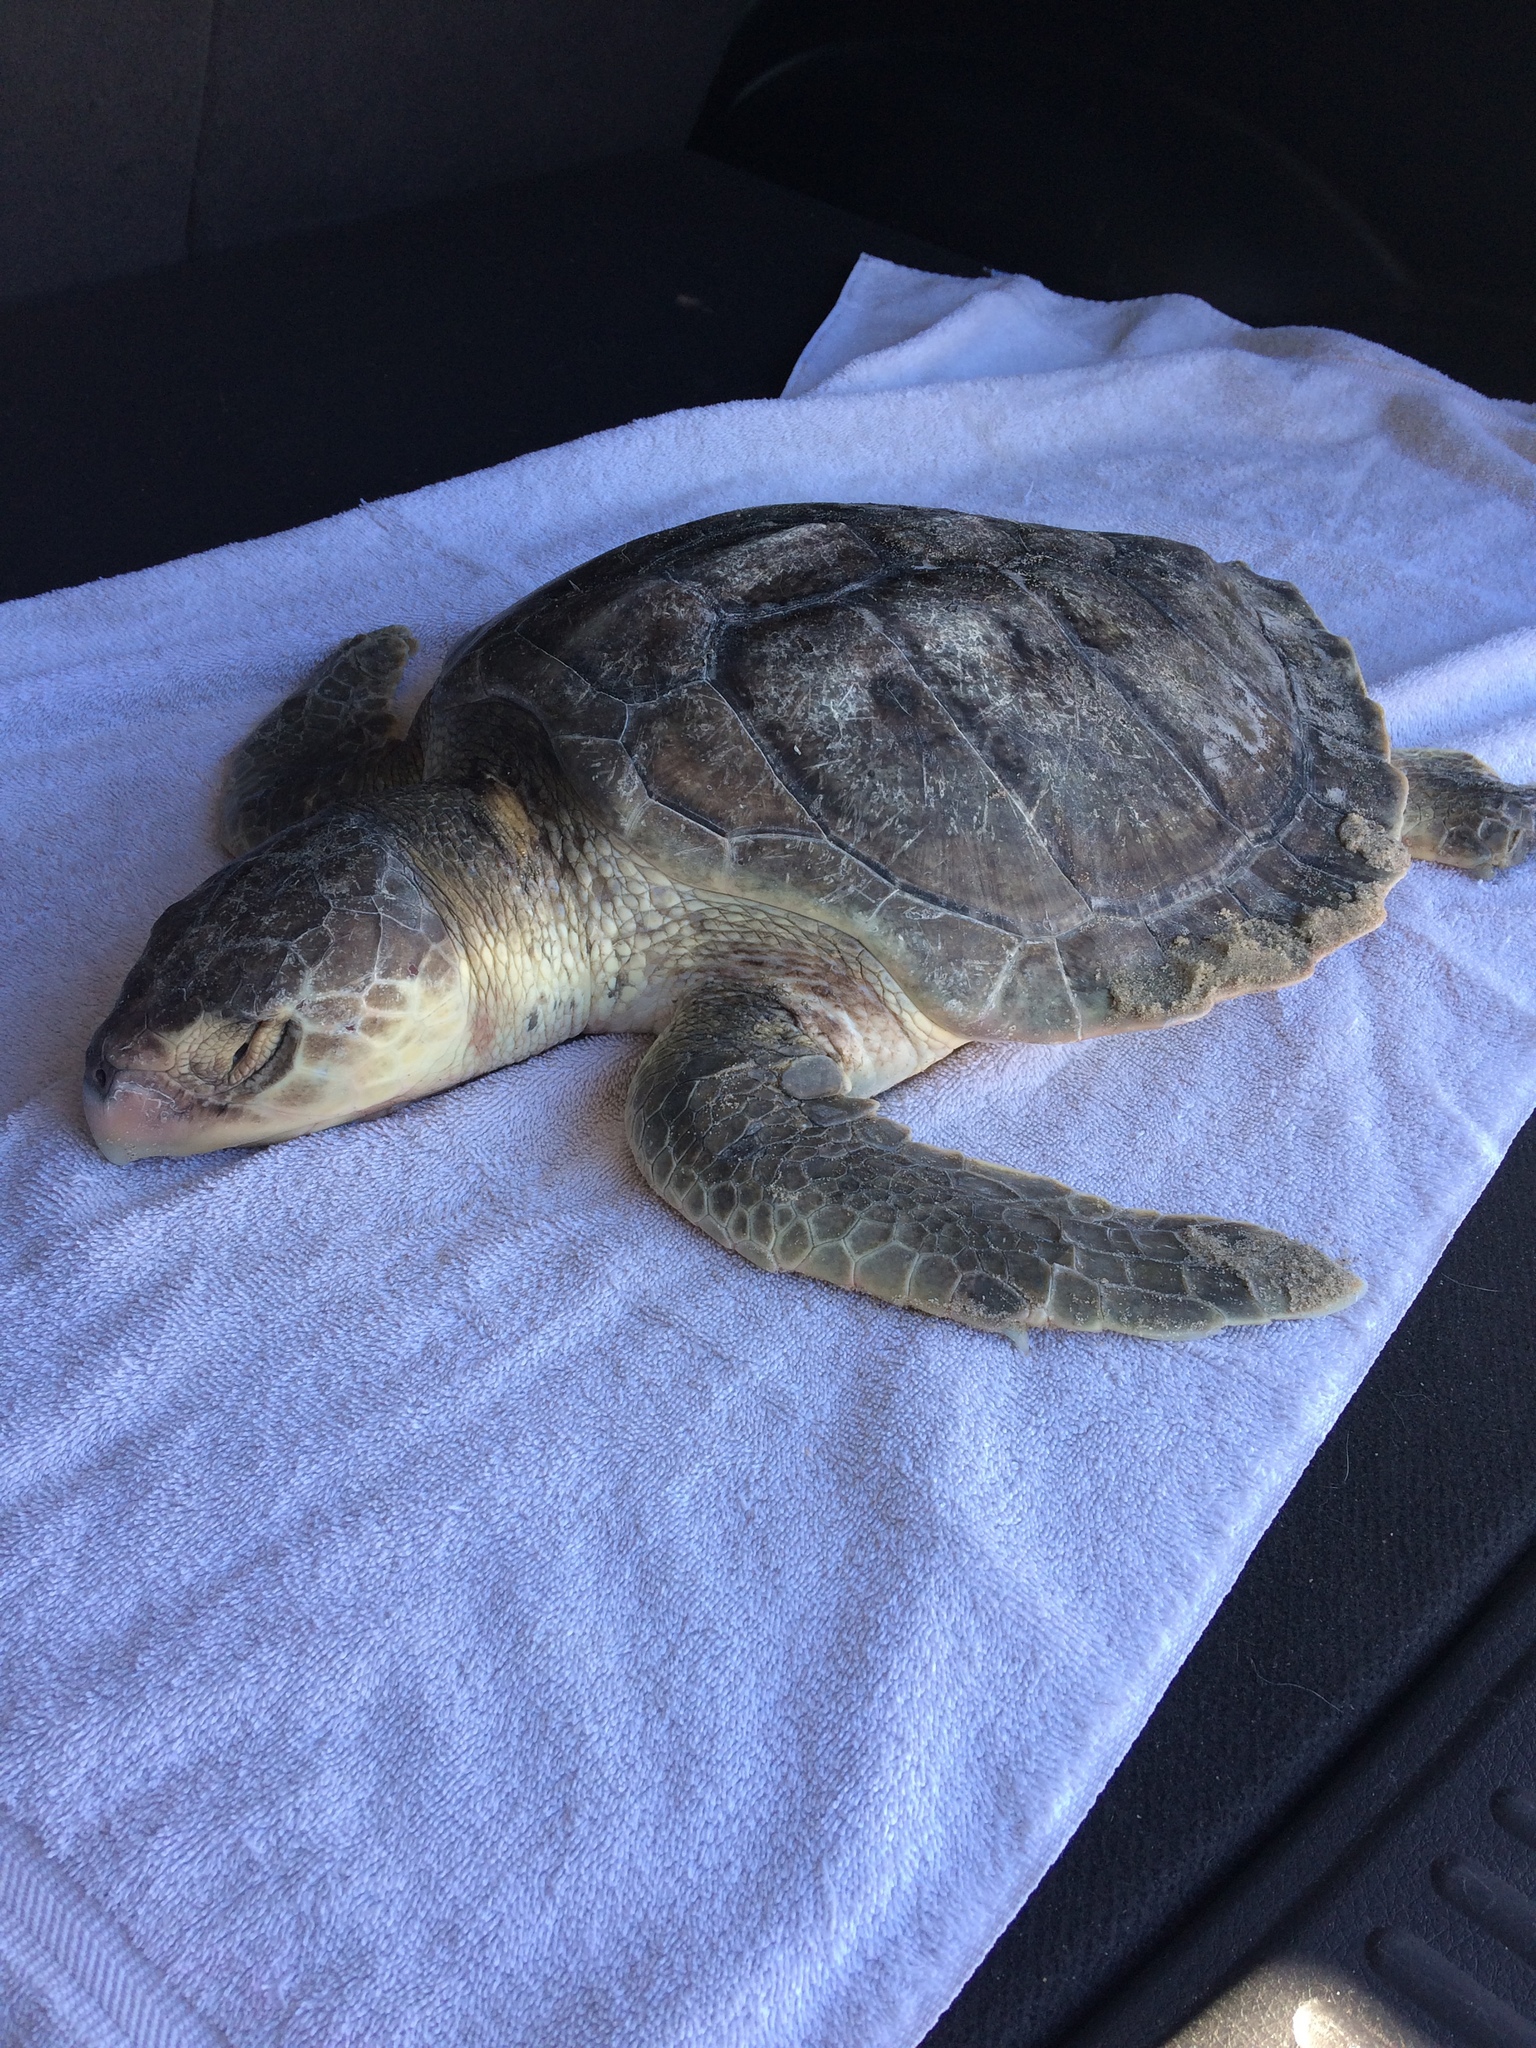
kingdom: Animalia
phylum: Chordata
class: Testudines
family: Cheloniidae
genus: Lepidochelys
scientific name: Lepidochelys kempii
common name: Kemp's ridley turtle
